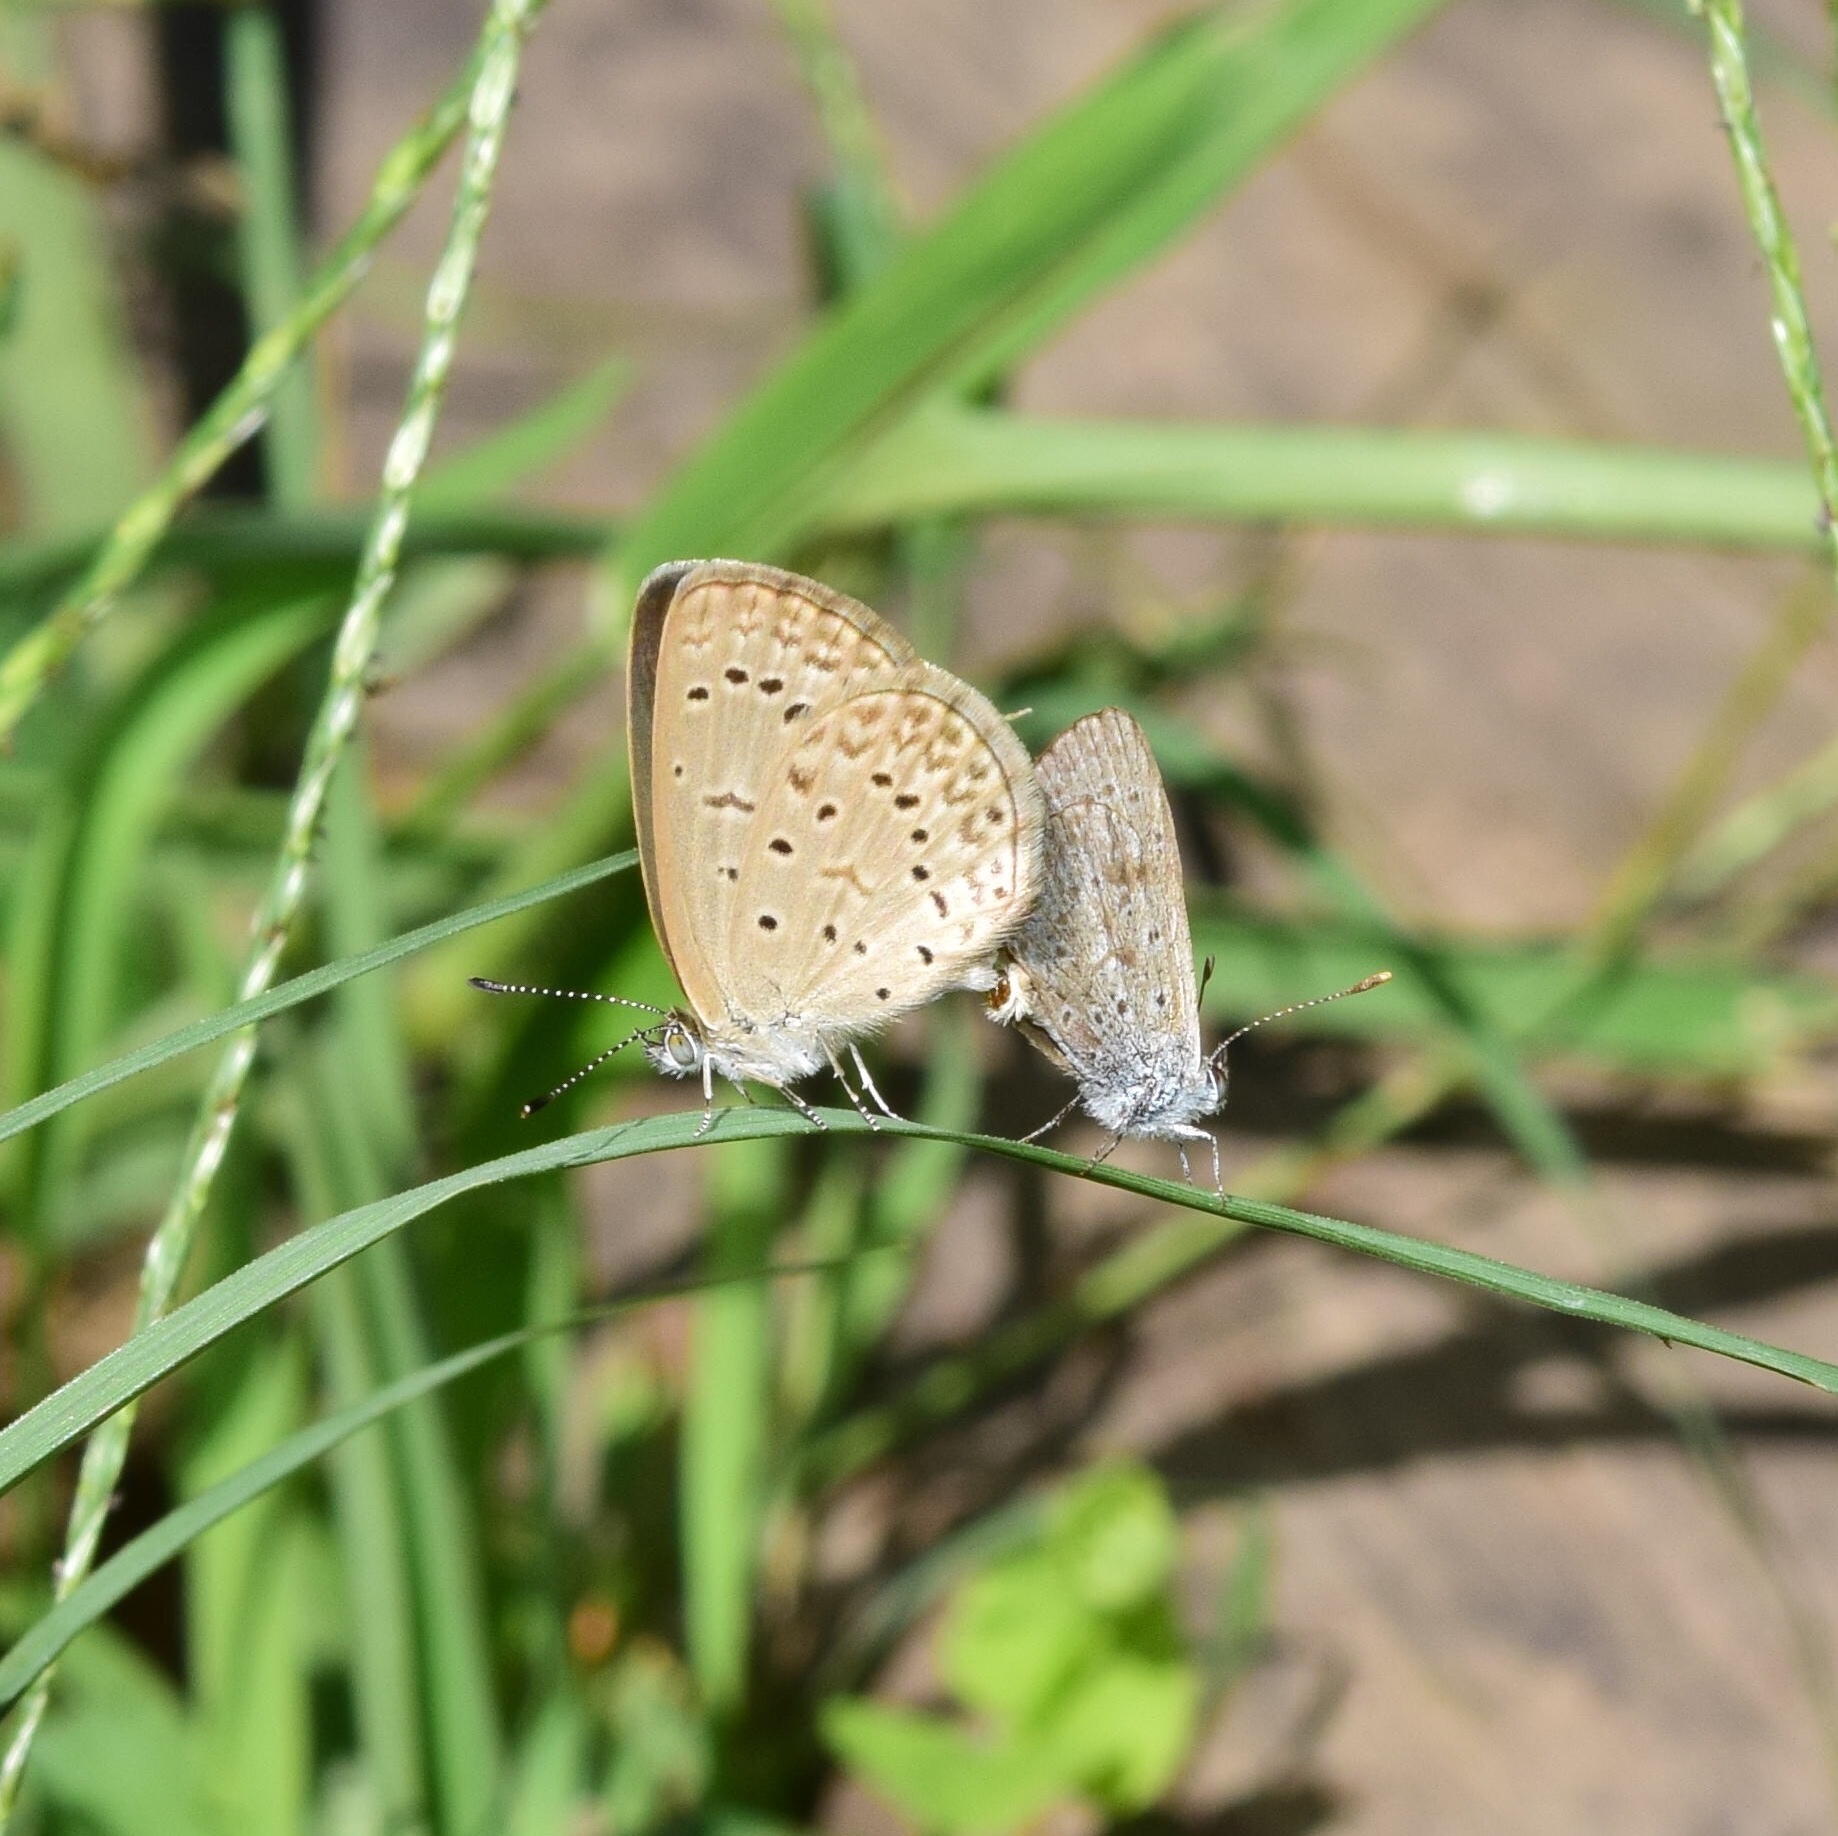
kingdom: Animalia
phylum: Arthropoda
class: Insecta
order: Lepidoptera
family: Lycaenidae
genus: Zizeeria
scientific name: Zizeeria knysna
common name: African grass blue
